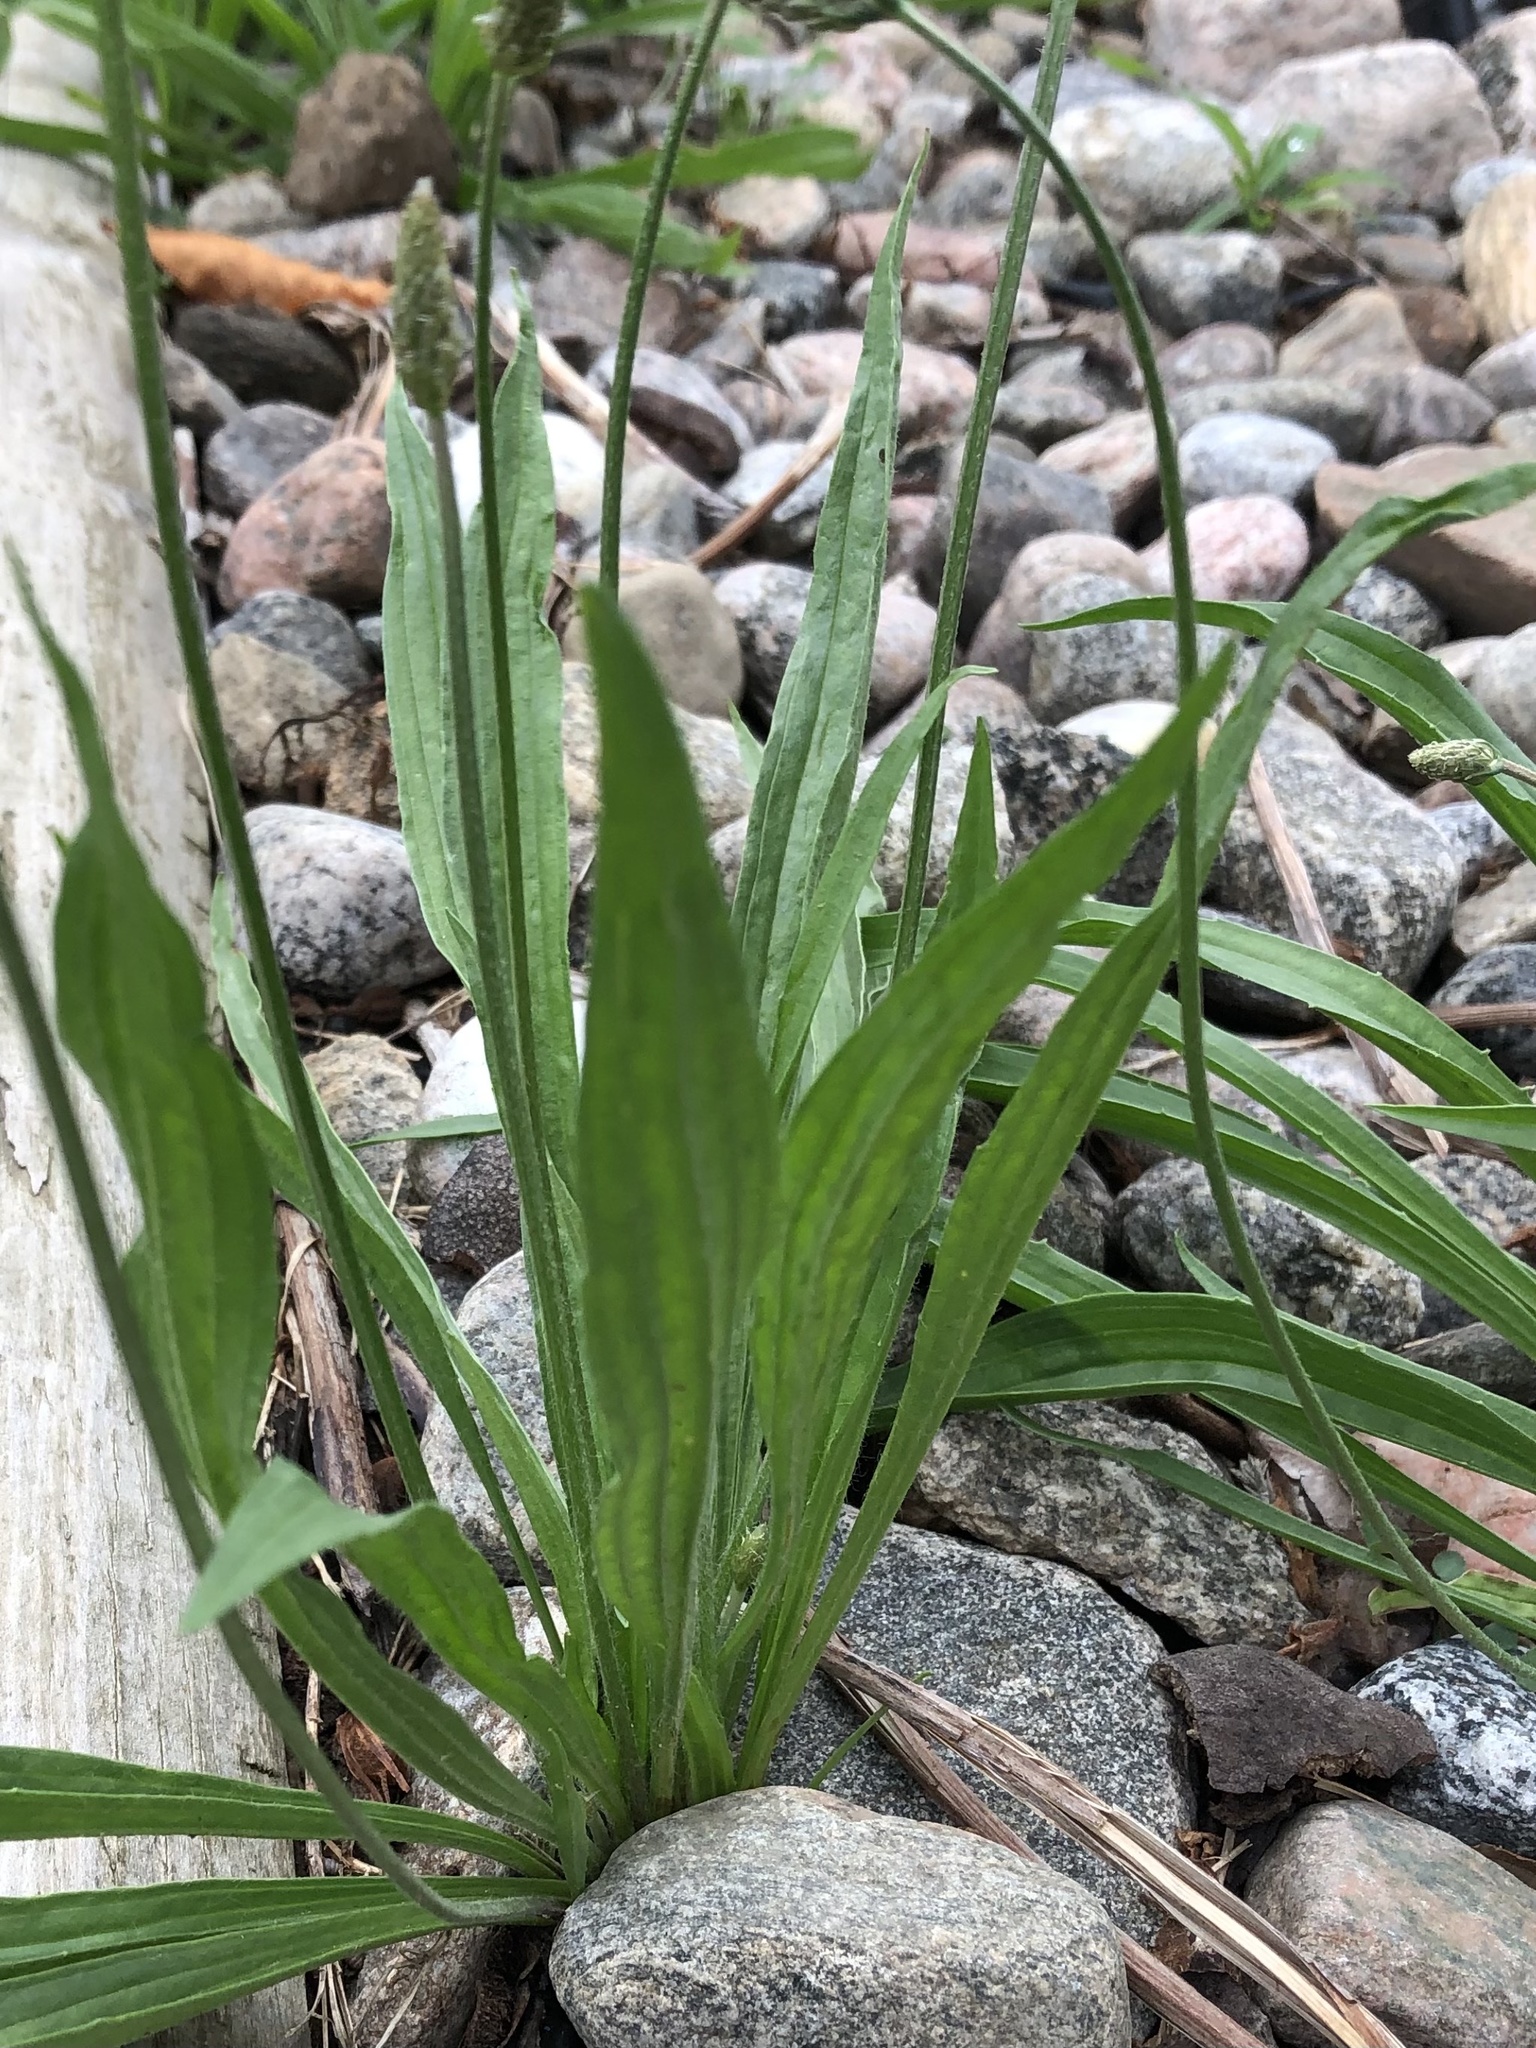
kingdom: Plantae
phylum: Tracheophyta
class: Magnoliopsida
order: Lamiales
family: Plantaginaceae
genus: Plantago
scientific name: Plantago lanceolata
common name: Ribwort plantain
